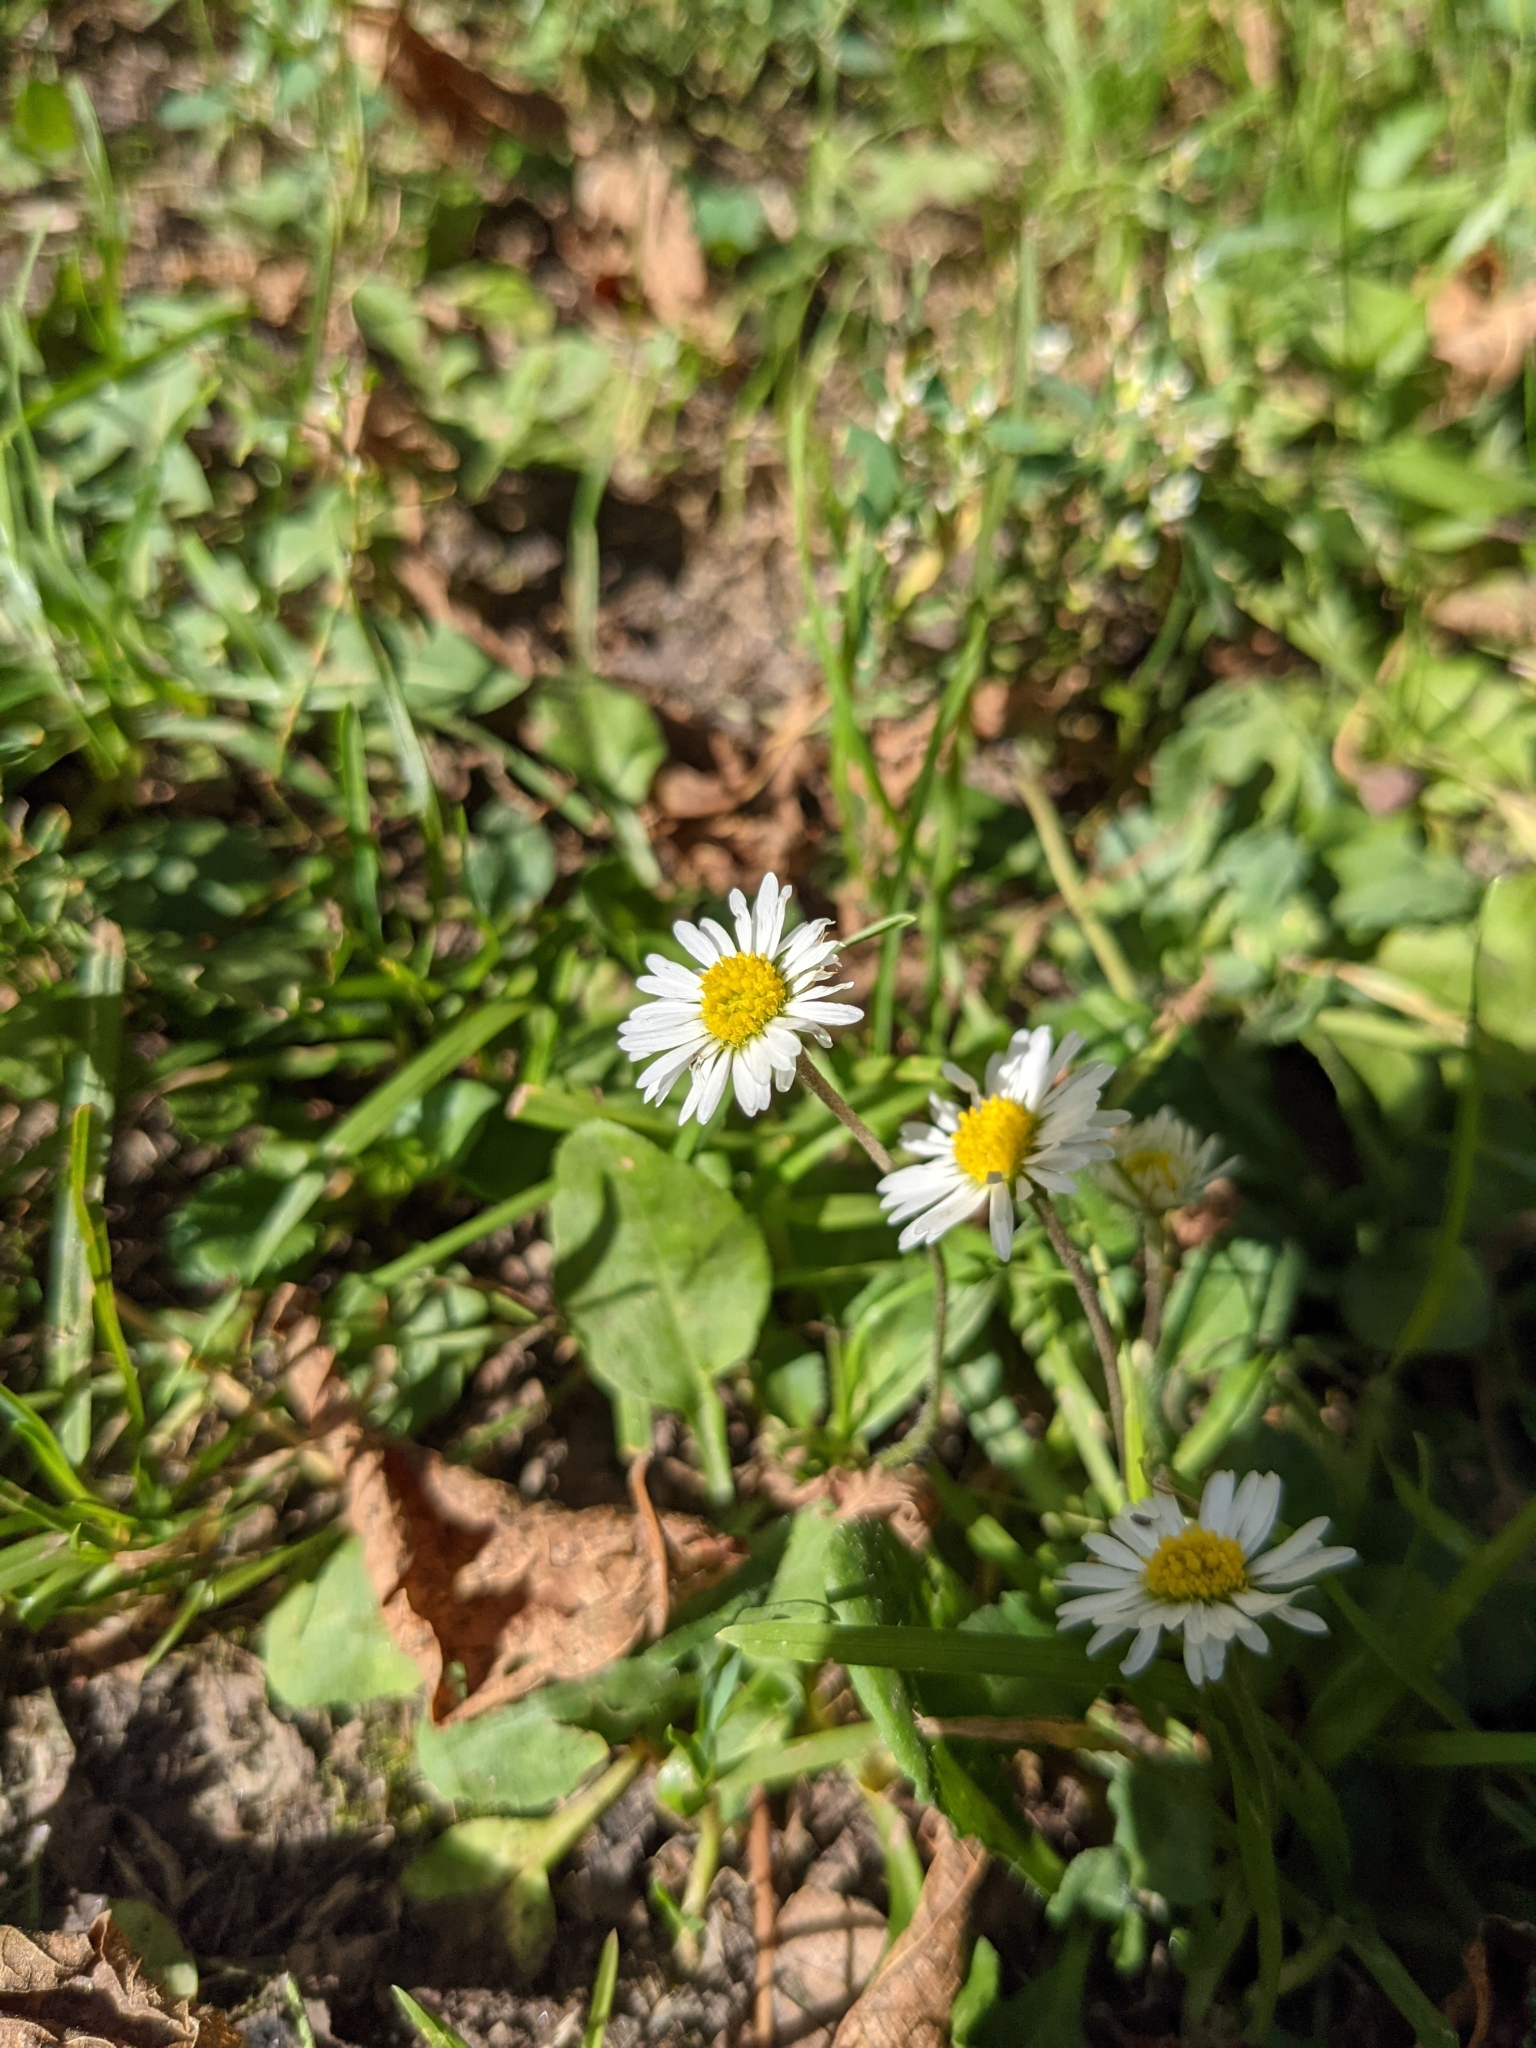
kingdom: Plantae
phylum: Tracheophyta
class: Magnoliopsida
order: Asterales
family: Asteraceae
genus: Bellis
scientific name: Bellis perennis
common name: Lawndaisy
